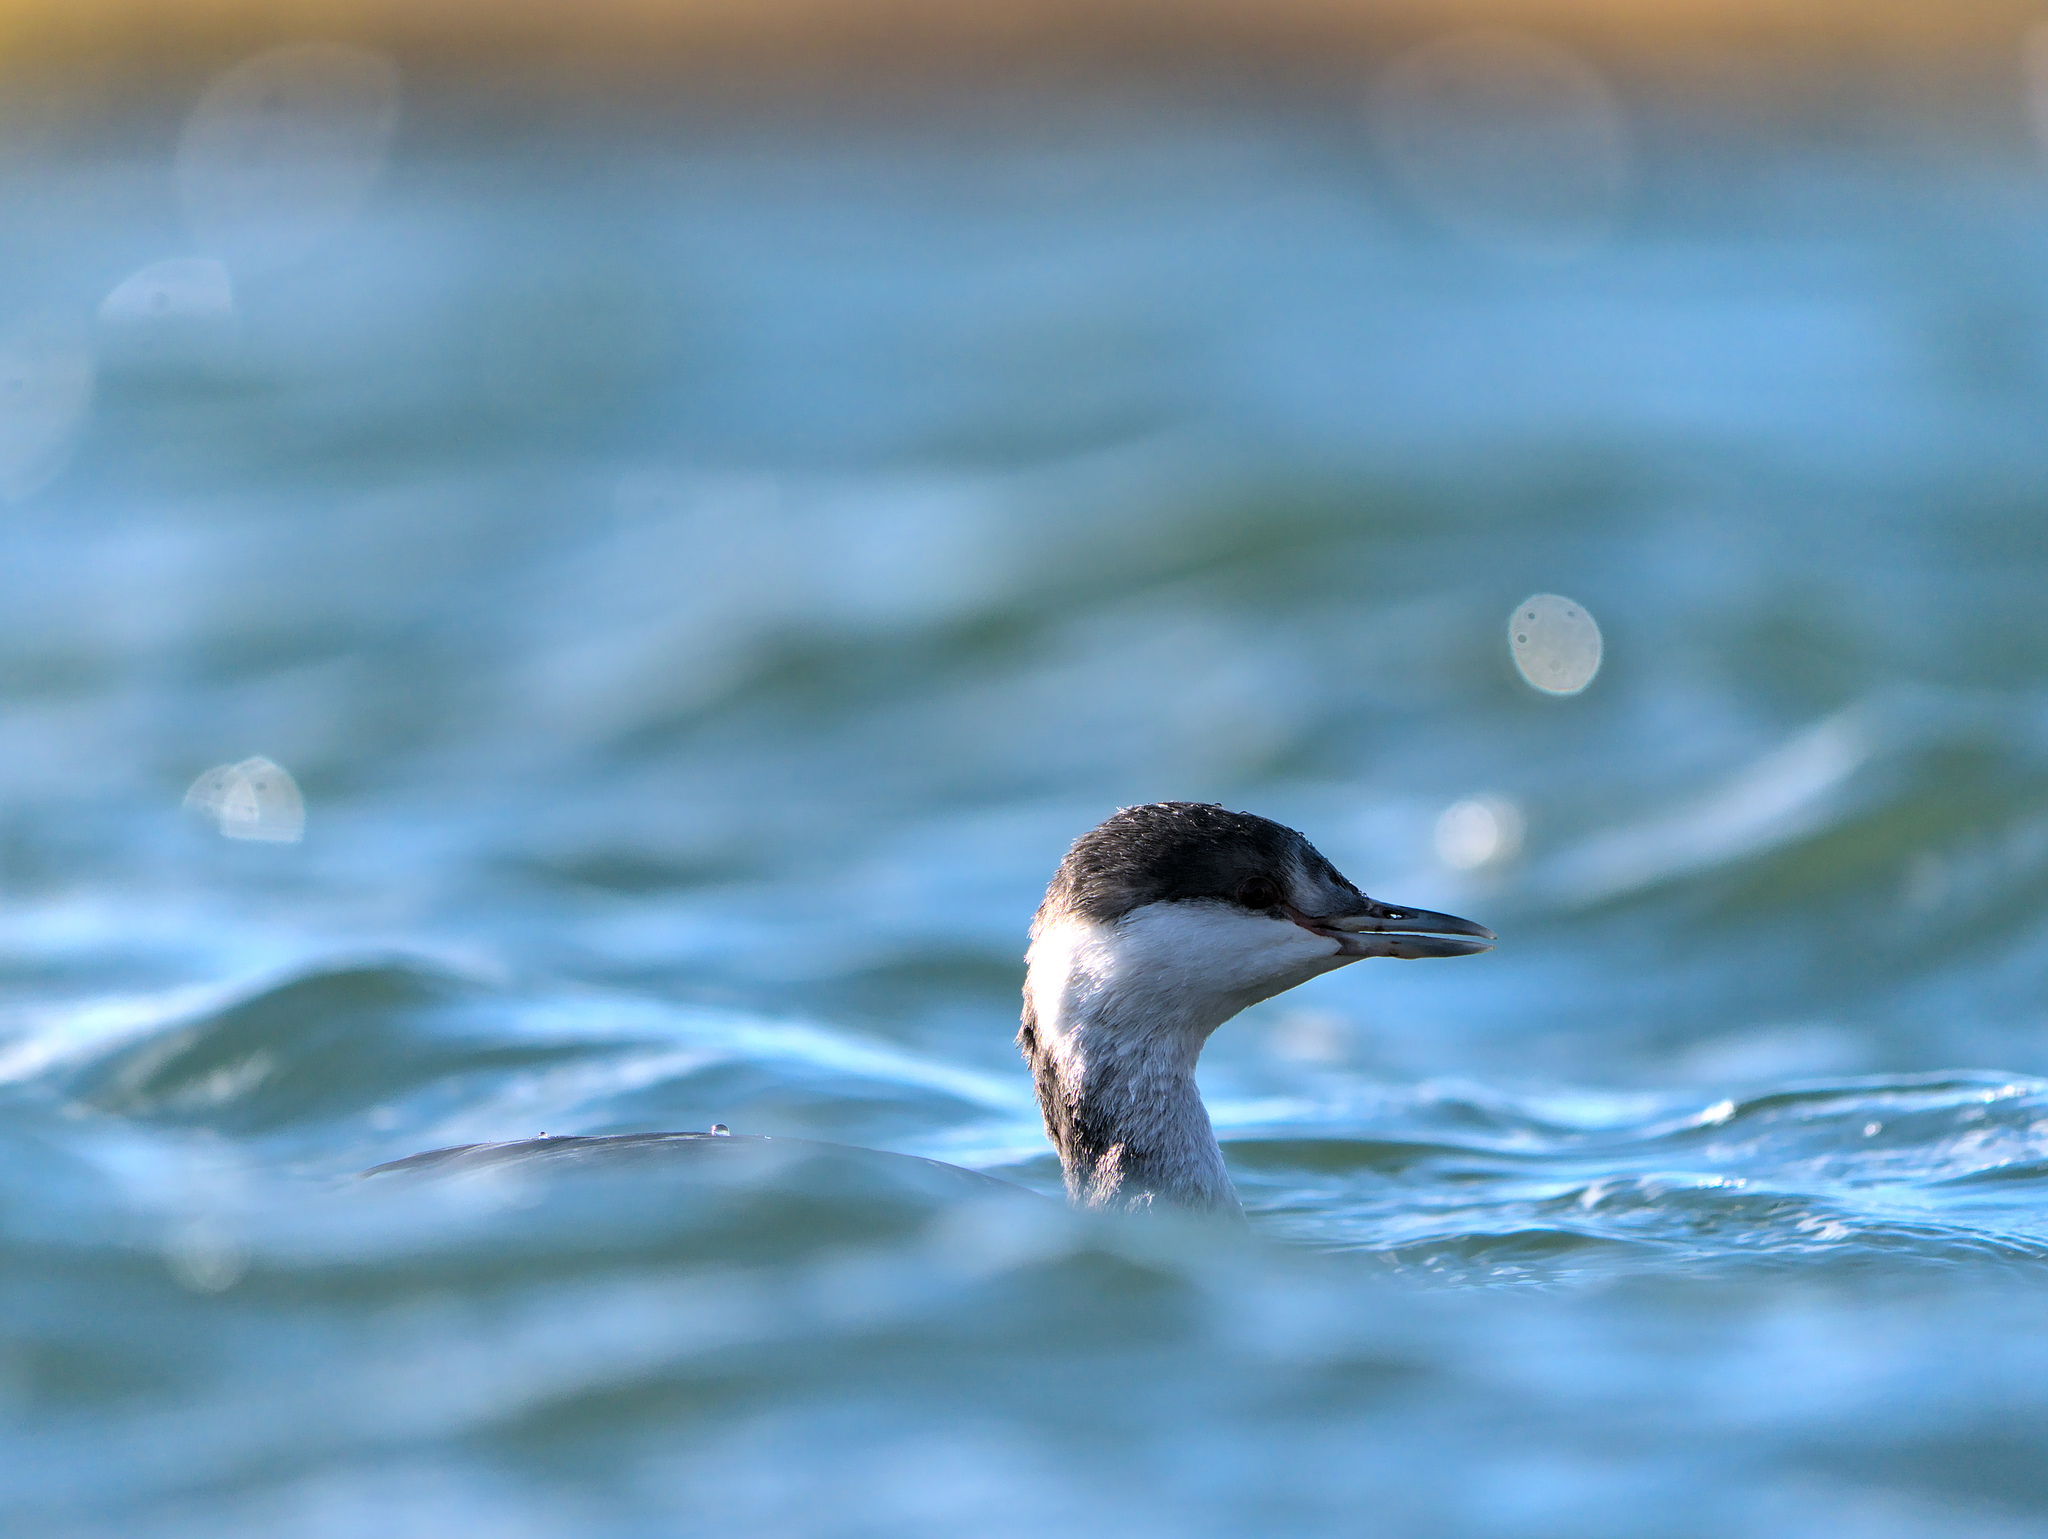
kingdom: Animalia
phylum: Chordata
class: Aves
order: Podicipediformes
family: Podicipedidae
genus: Podiceps
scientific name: Podiceps auritus
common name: Horned grebe
